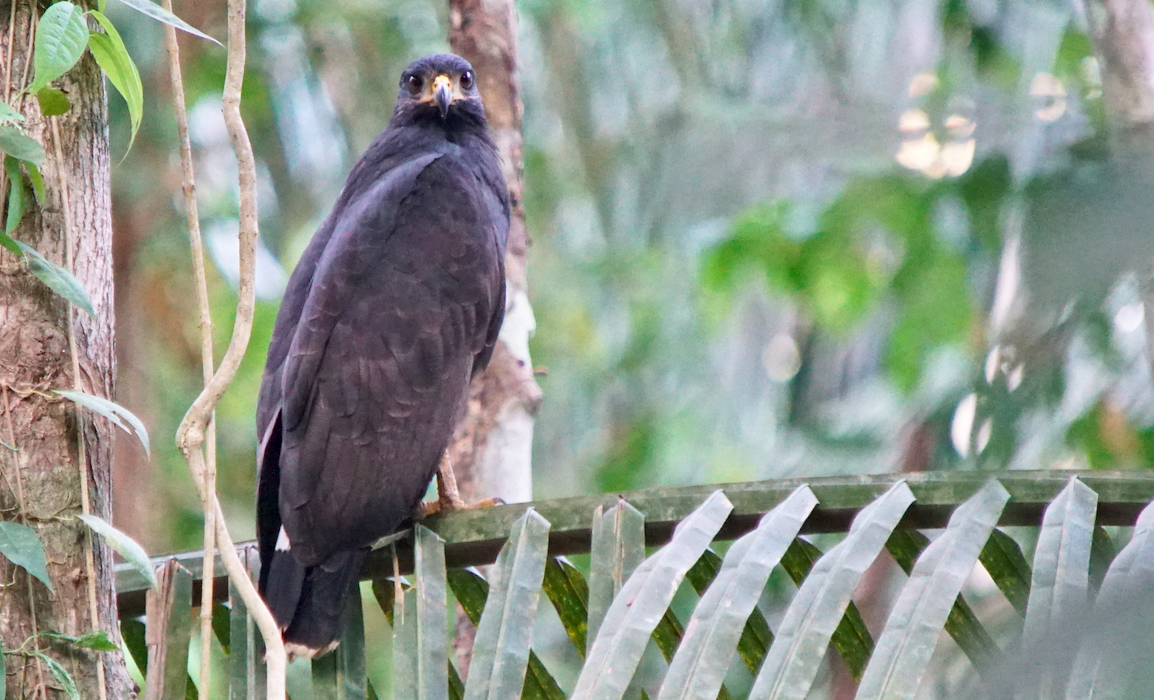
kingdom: Animalia
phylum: Chordata
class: Aves
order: Accipitriformes
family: Accipitridae
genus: Buteogallus
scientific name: Buteogallus anthracinus
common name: Common black hawk
